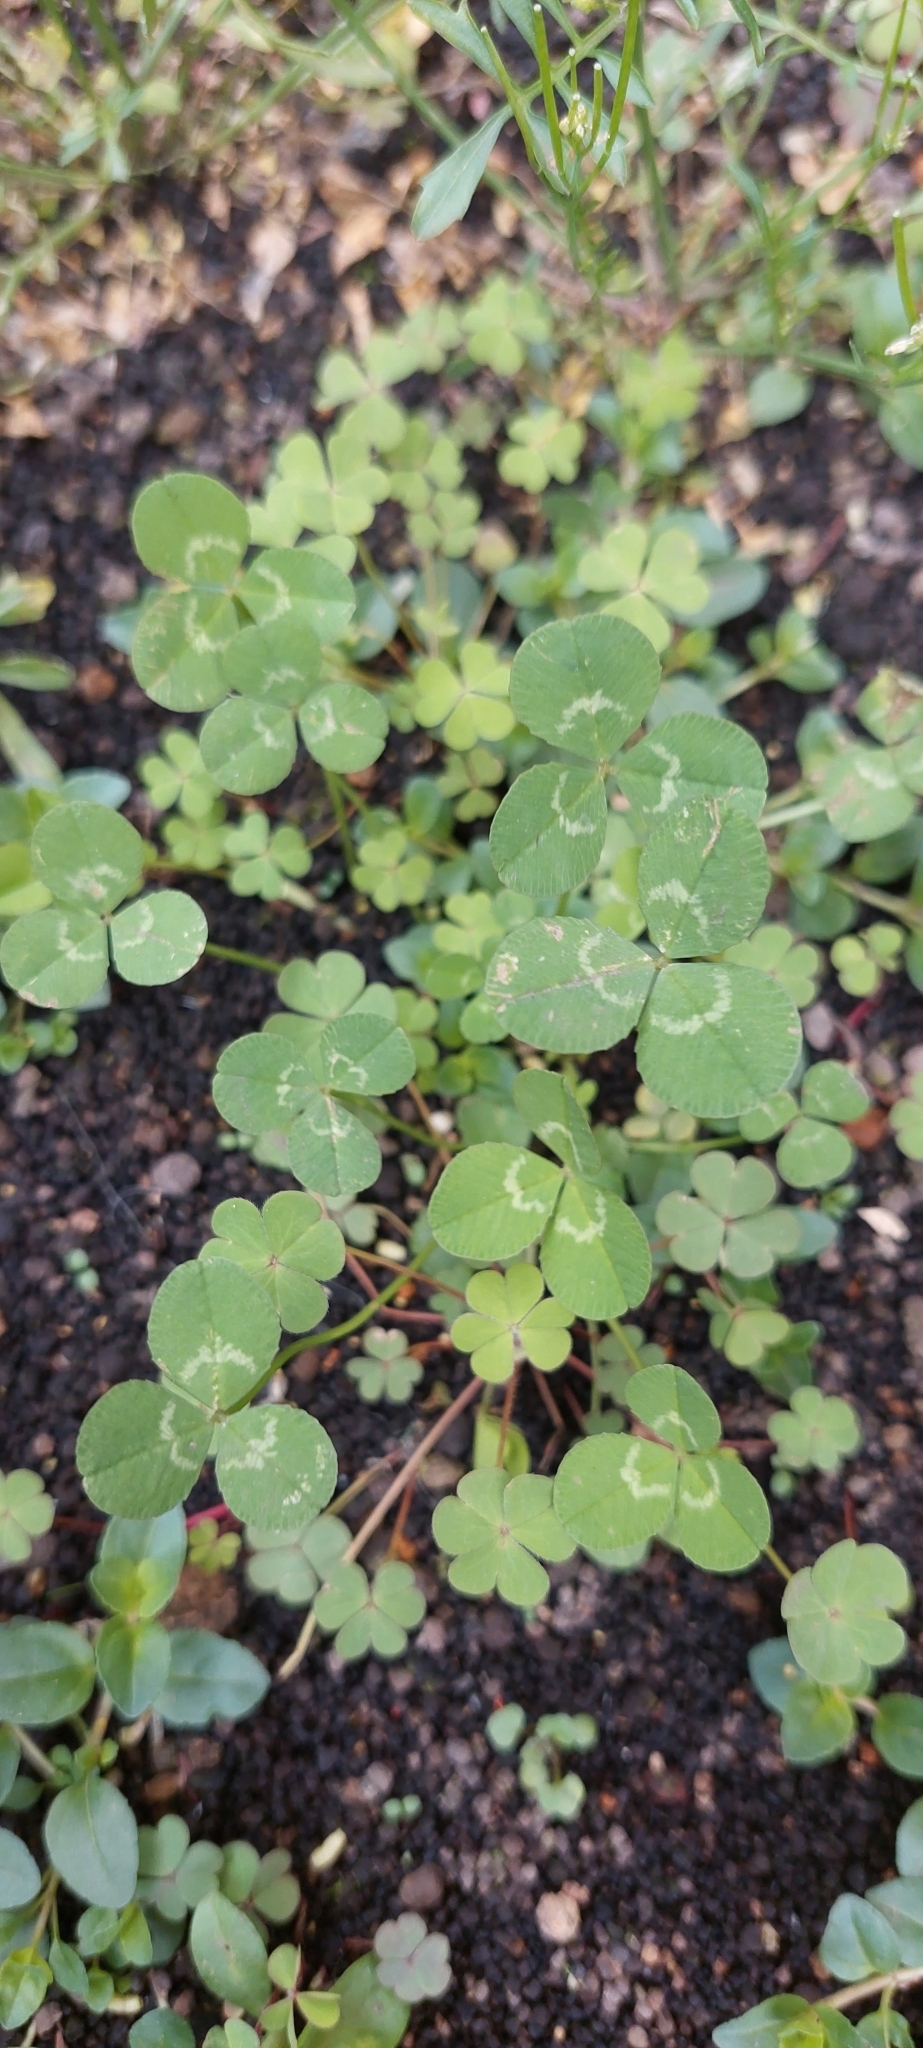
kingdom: Plantae
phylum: Tracheophyta
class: Magnoliopsida
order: Fabales
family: Fabaceae
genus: Trifolium
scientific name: Trifolium repens
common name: White clover
